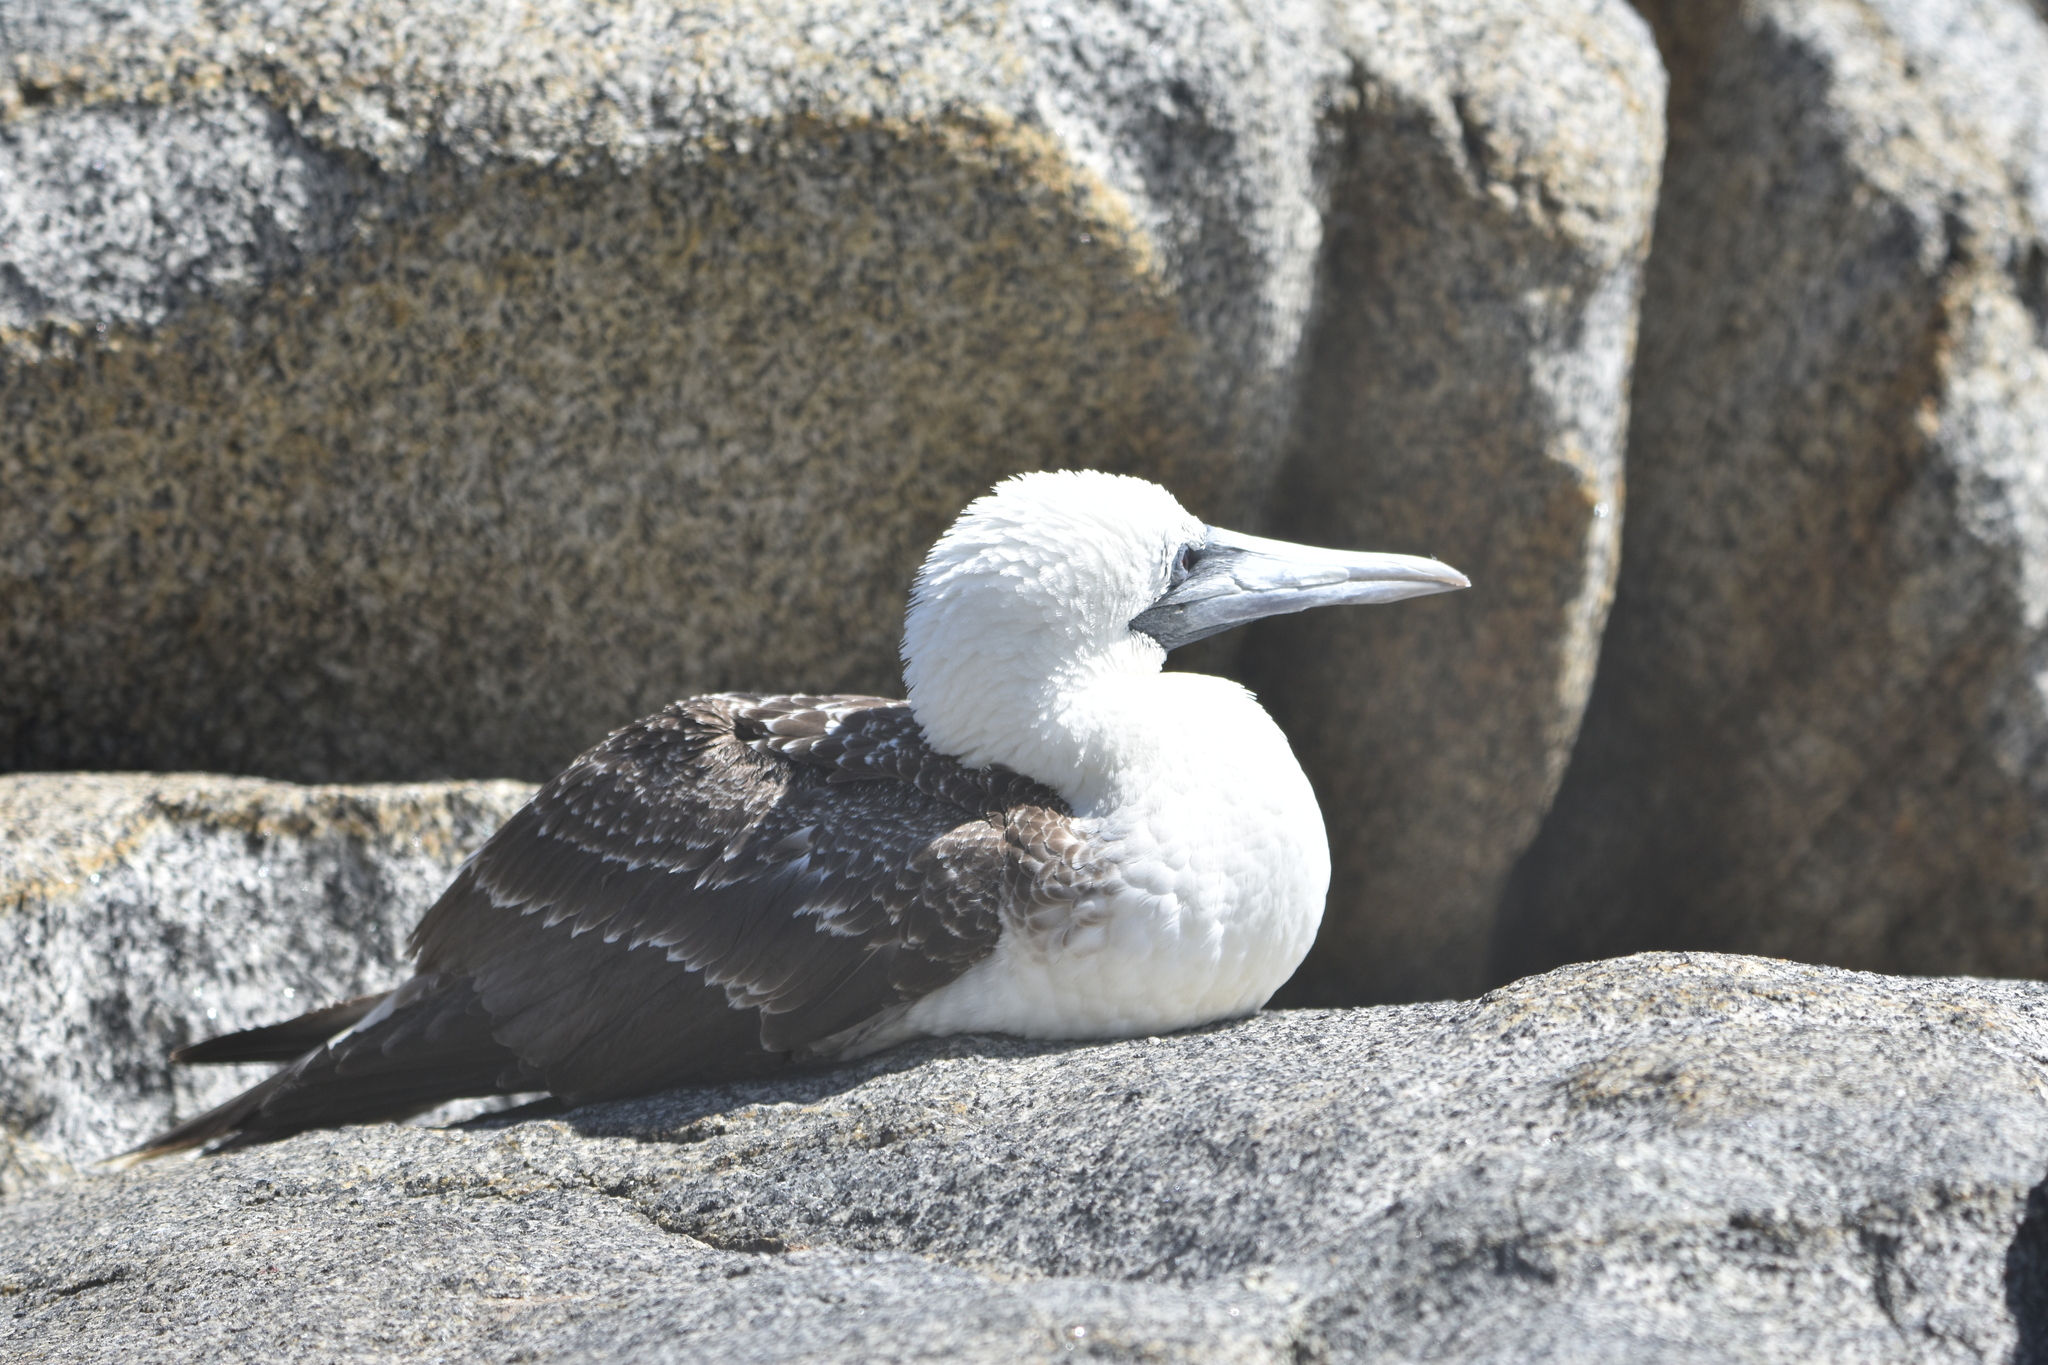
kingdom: Animalia
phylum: Chordata
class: Aves
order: Suliformes
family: Sulidae
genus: Sula
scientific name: Sula variegata
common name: Peruvian booby
